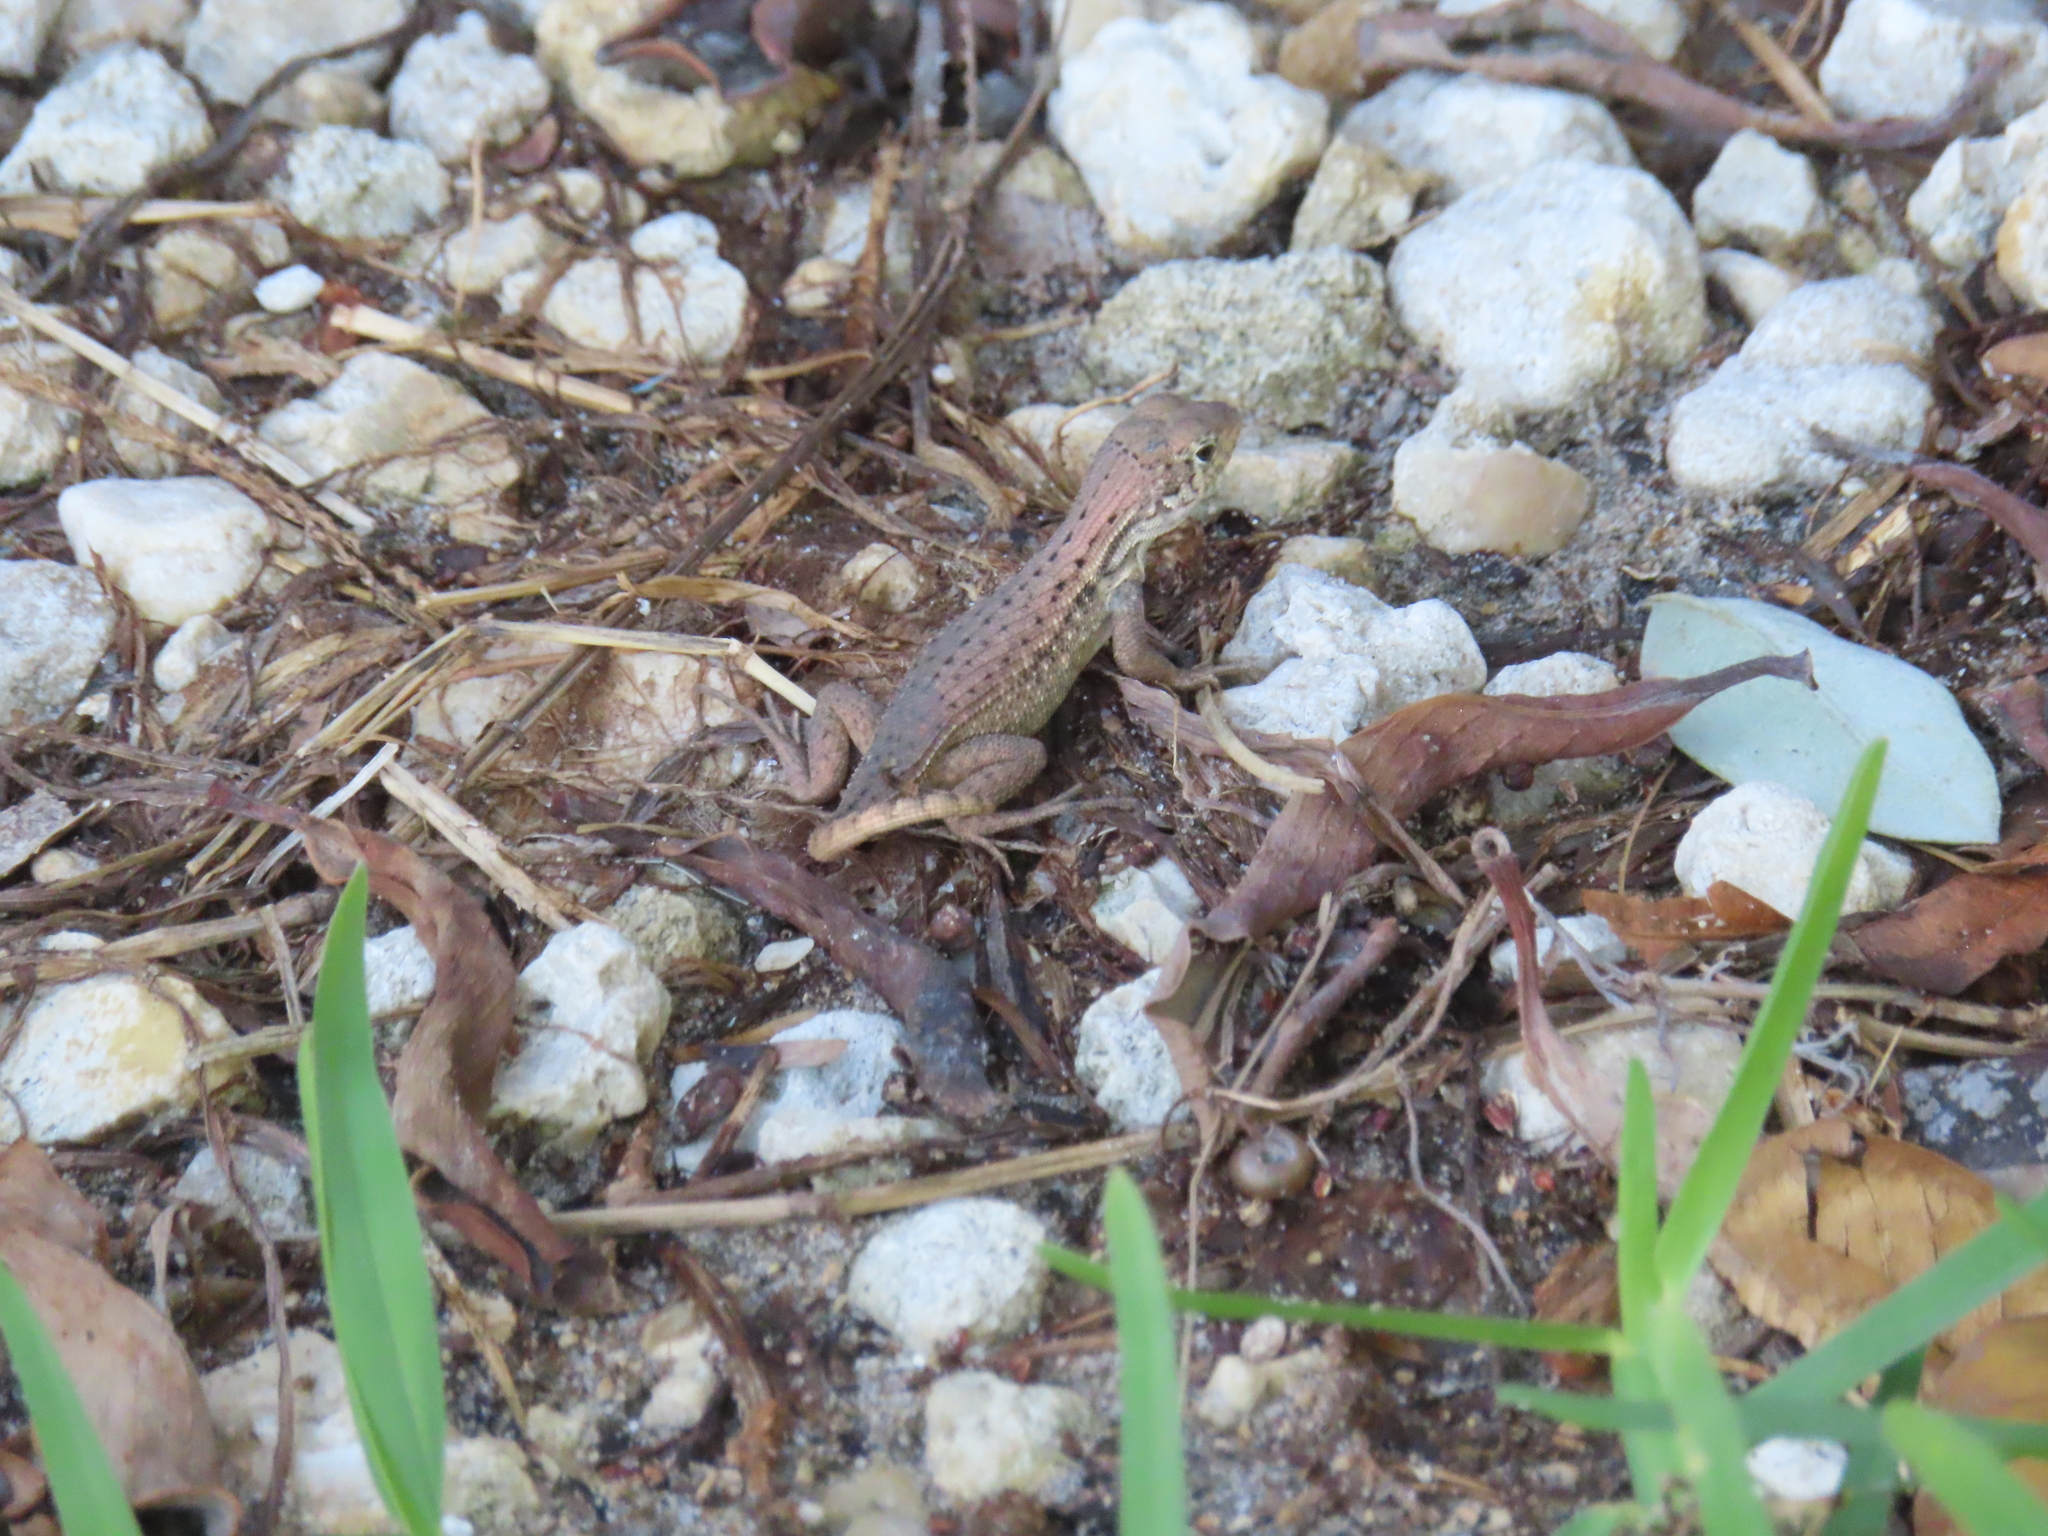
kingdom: Animalia
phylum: Chordata
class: Squamata
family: Leiocephalidae
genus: Leiocephalus
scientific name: Leiocephalus carinatus
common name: Northern curly-tailed lizard
